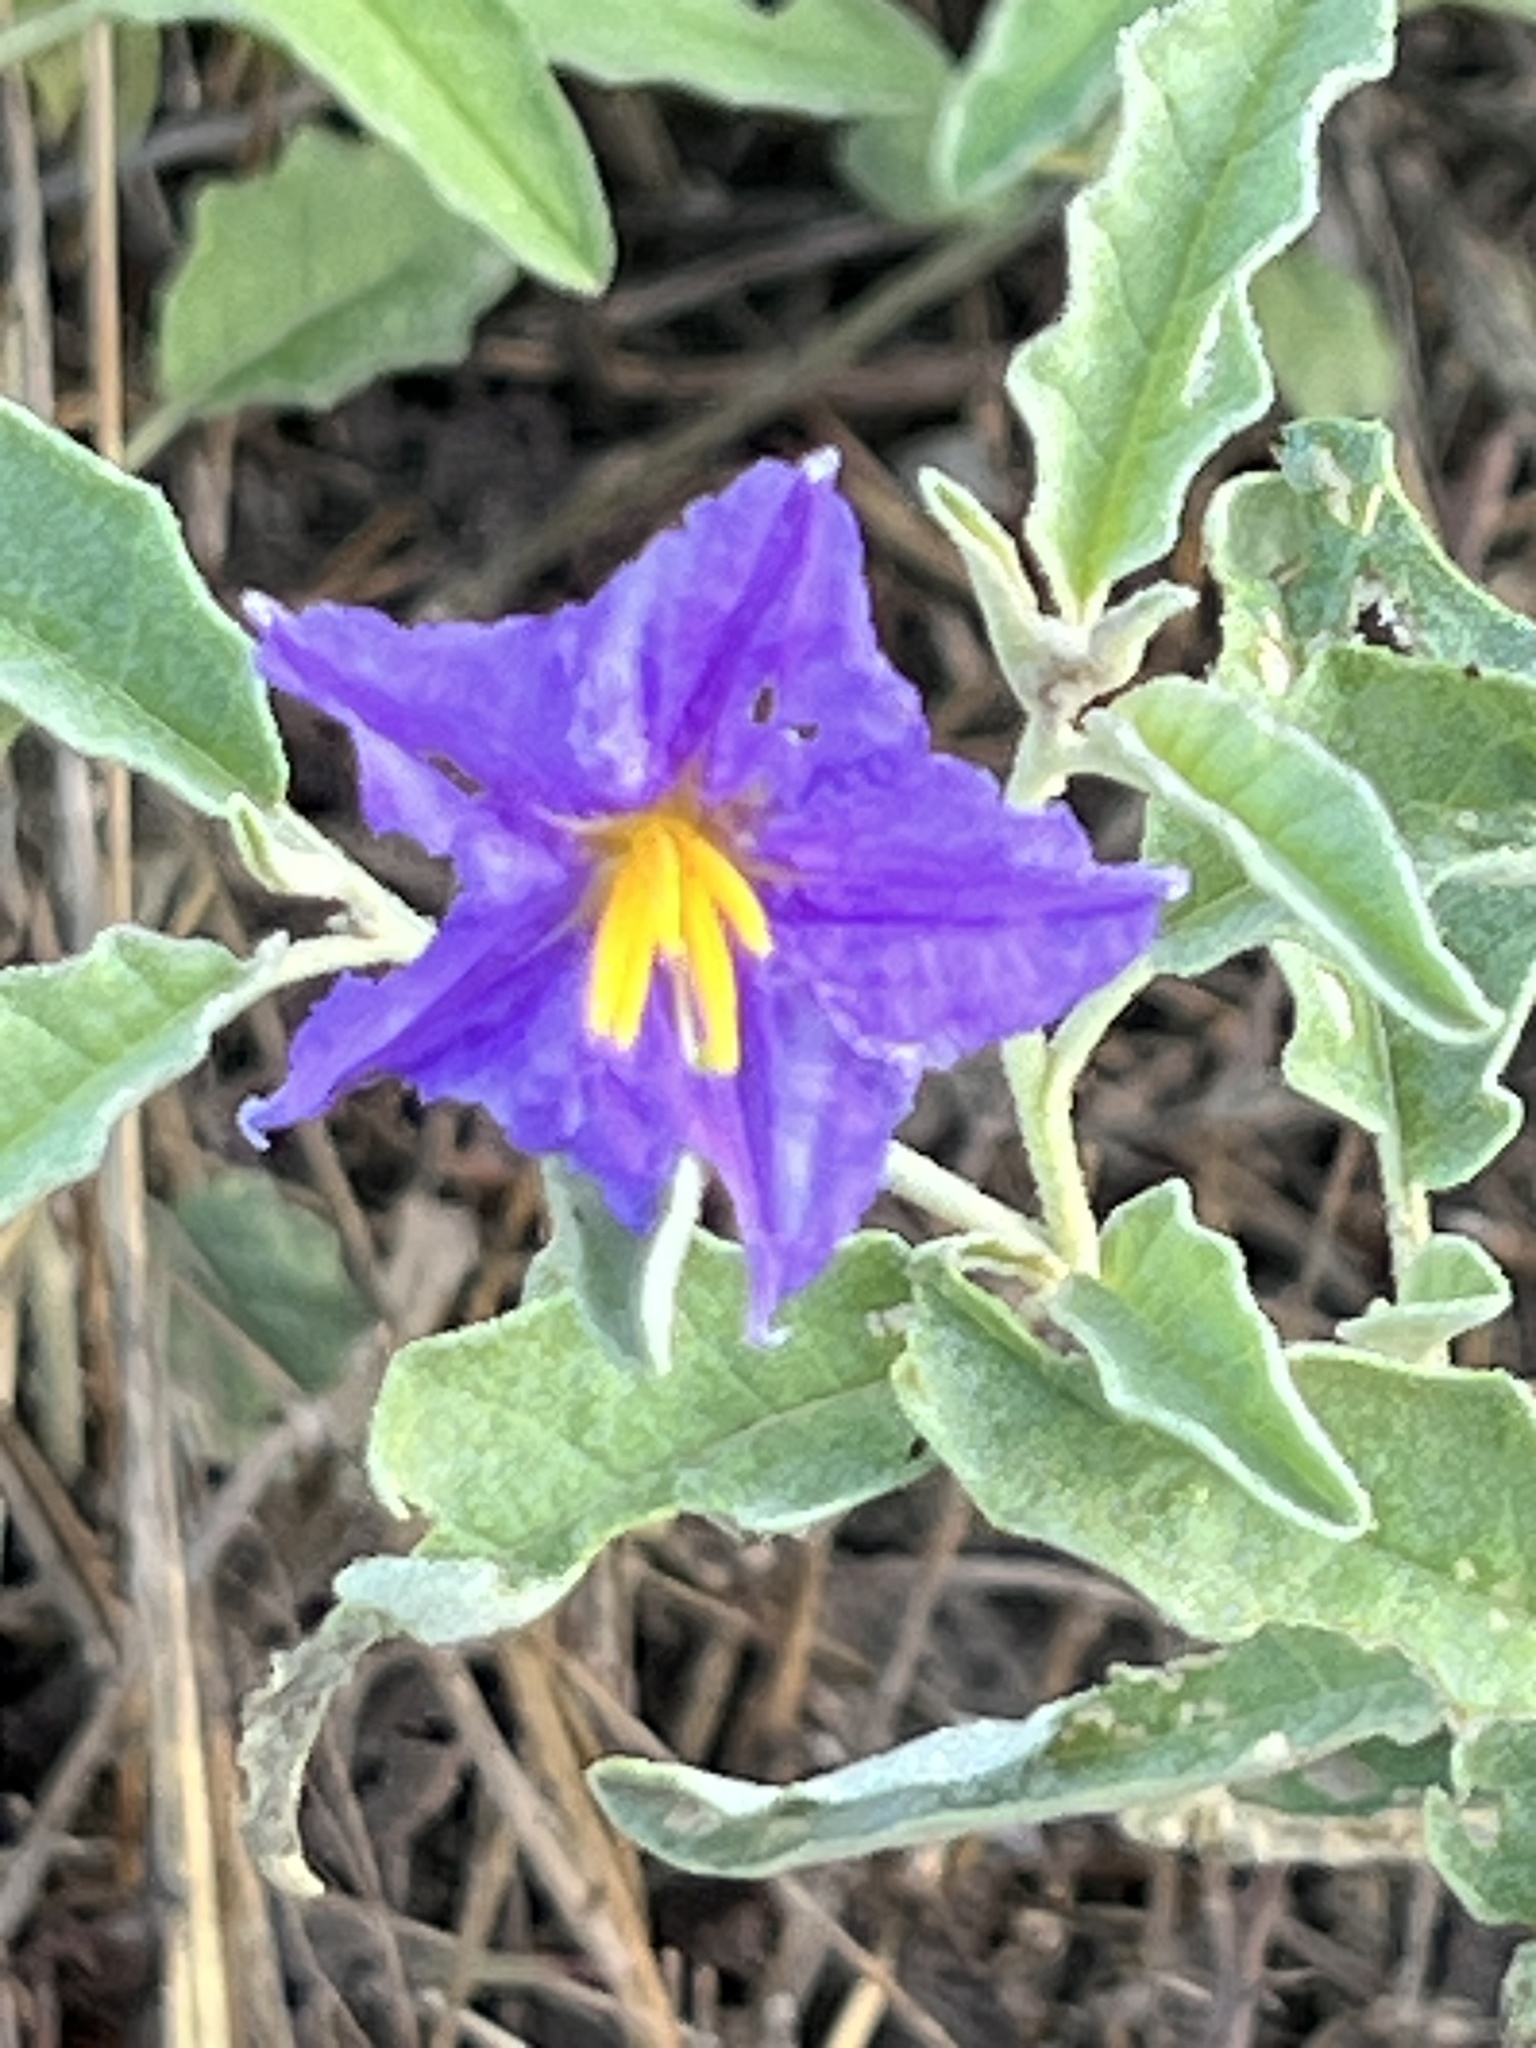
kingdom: Plantae
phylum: Tracheophyta
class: Magnoliopsida
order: Solanales
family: Solanaceae
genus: Solanum
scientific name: Solanum elaeagnifolium
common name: Silverleaf nightshade
